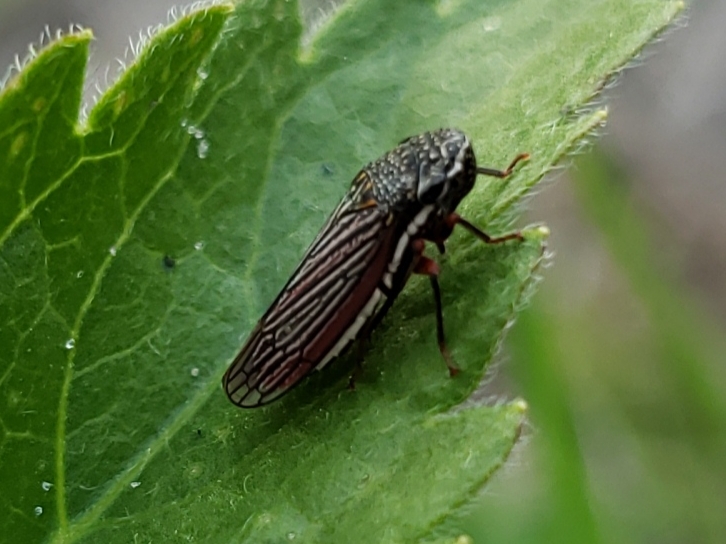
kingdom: Animalia
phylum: Arthropoda
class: Insecta
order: Hemiptera
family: Cicadellidae
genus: Cuerna
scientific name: Cuerna costalis
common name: Lateral-lined sharpshooter
